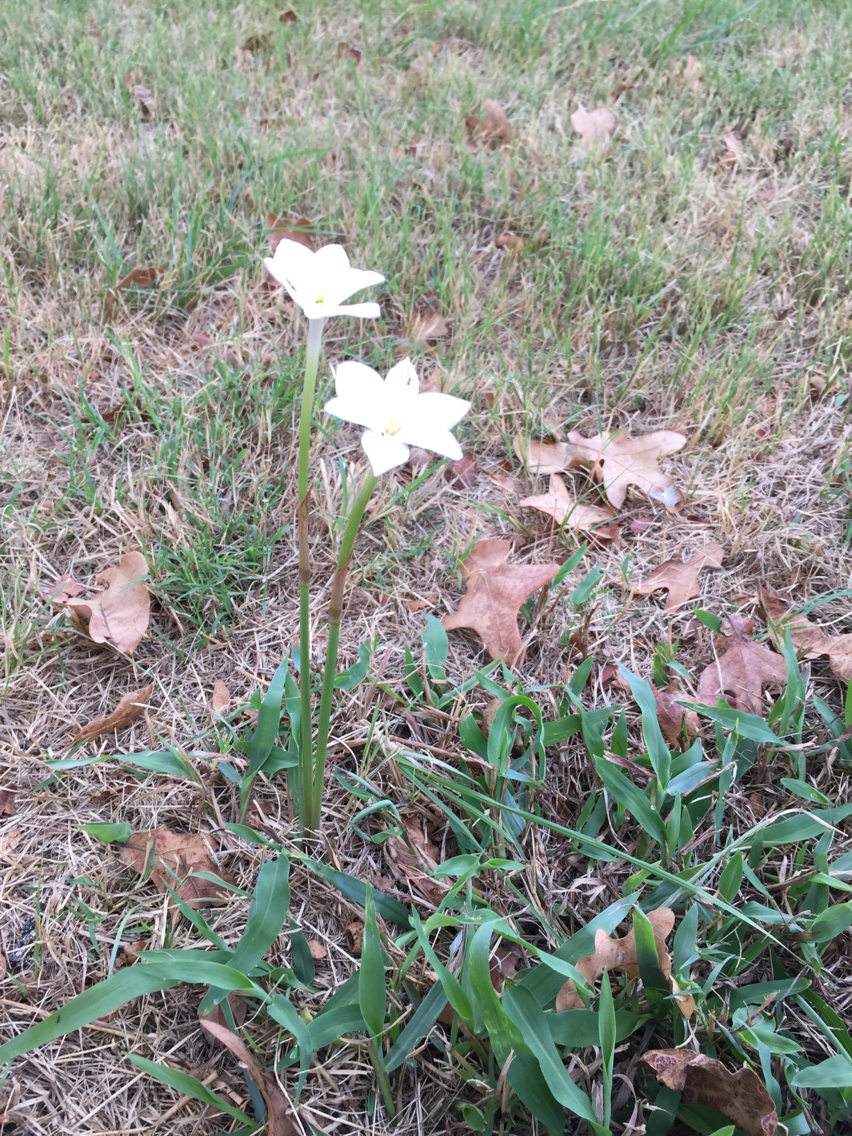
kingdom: Plantae
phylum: Tracheophyta
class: Liliopsida
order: Asparagales
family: Amaryllidaceae
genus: Zephyranthes
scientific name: Zephyranthes chlorosolen
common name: Evening rain-lily
